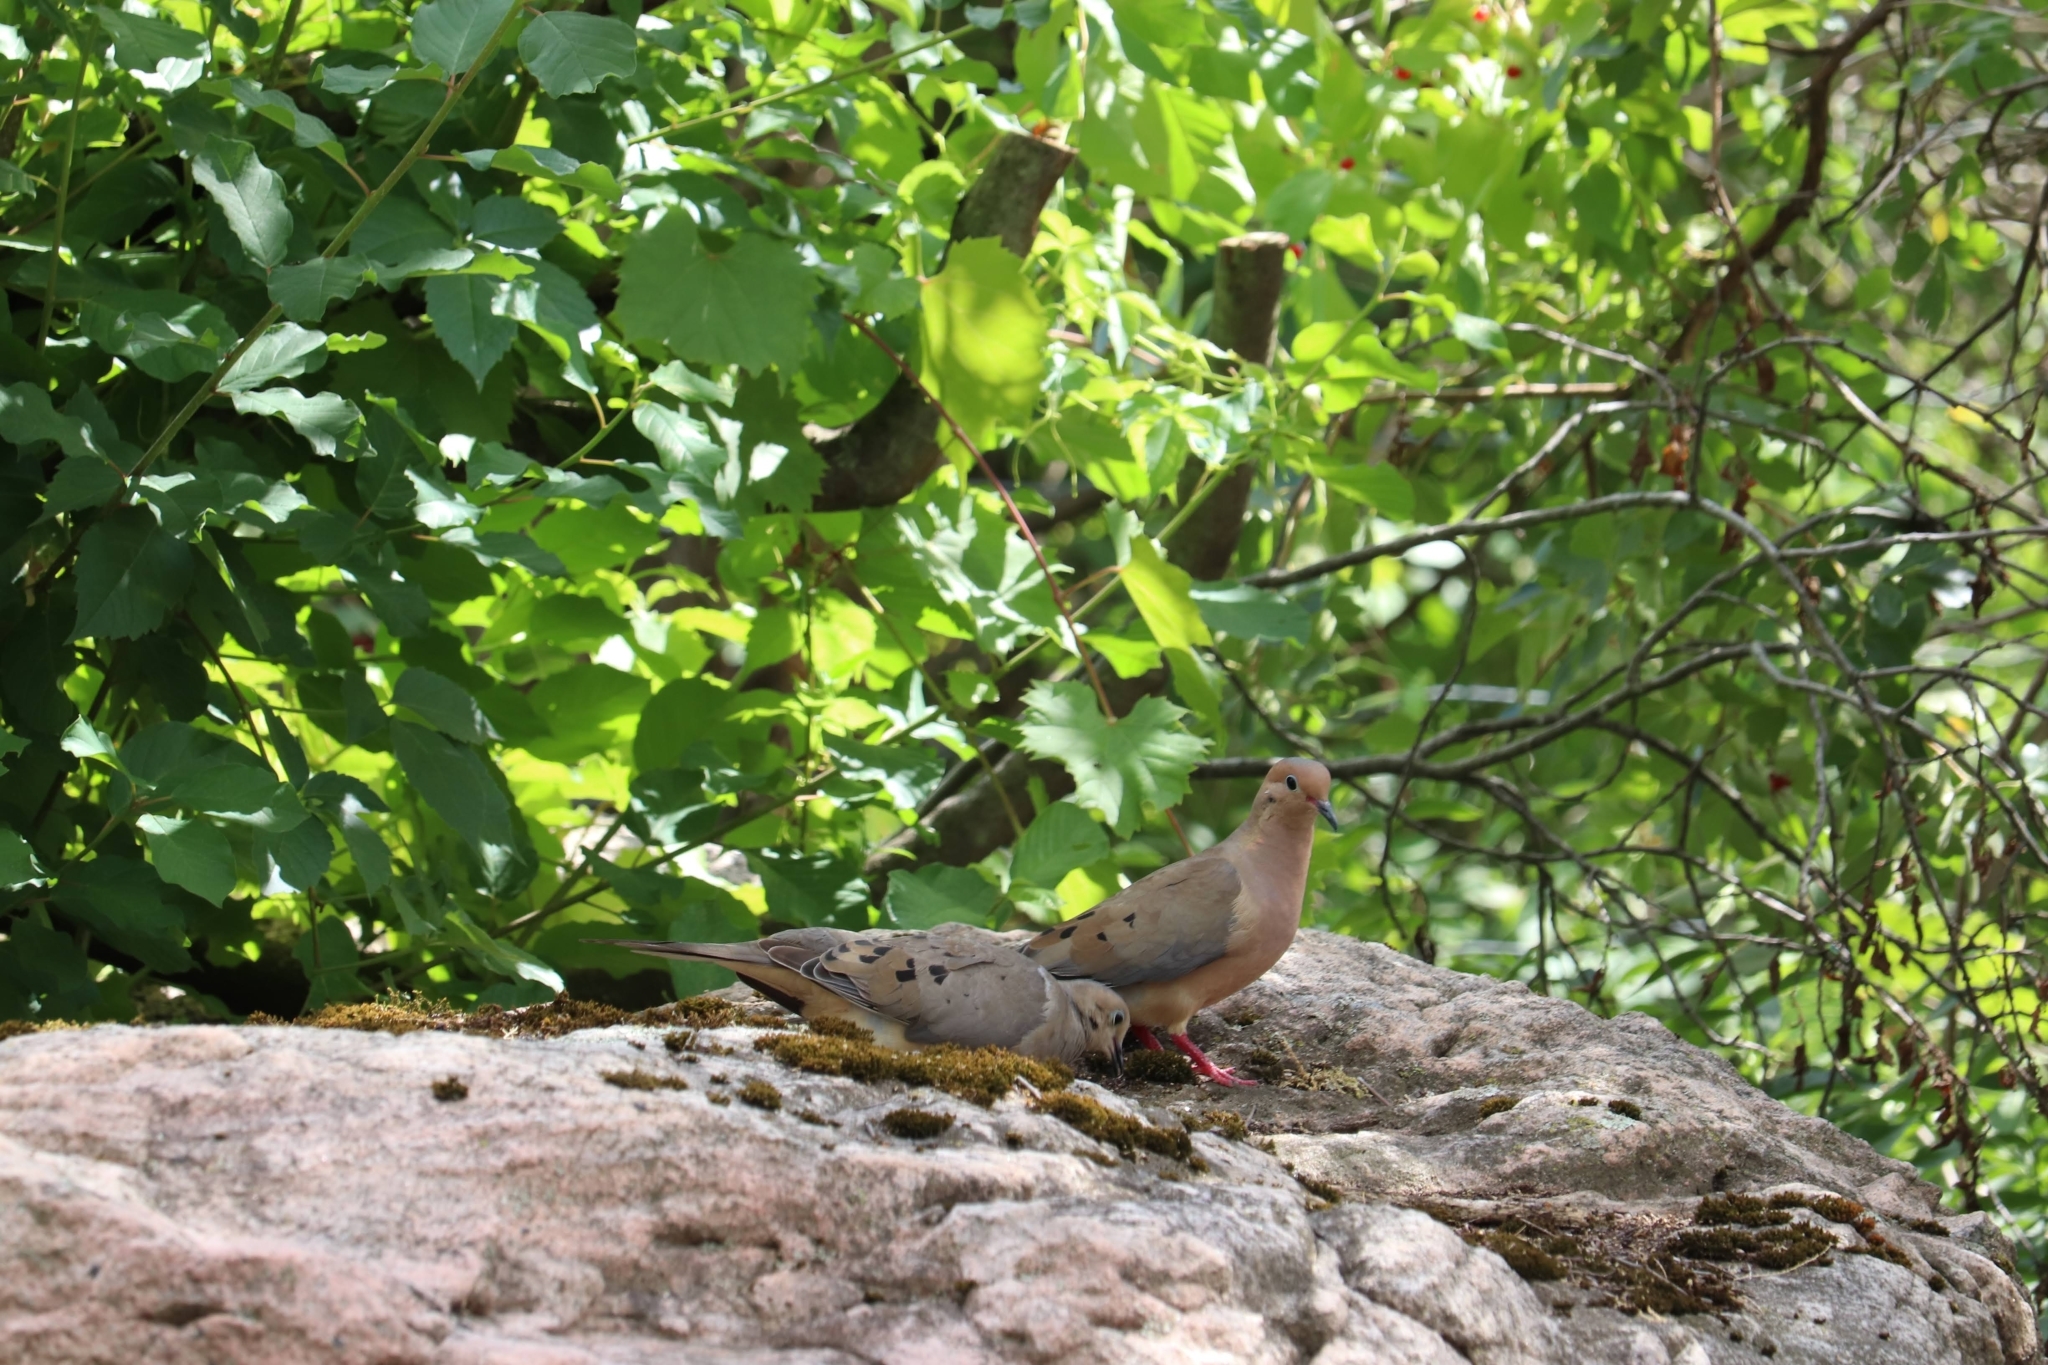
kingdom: Animalia
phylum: Chordata
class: Aves
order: Columbiformes
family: Columbidae
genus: Zenaida
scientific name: Zenaida macroura
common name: Mourning dove
